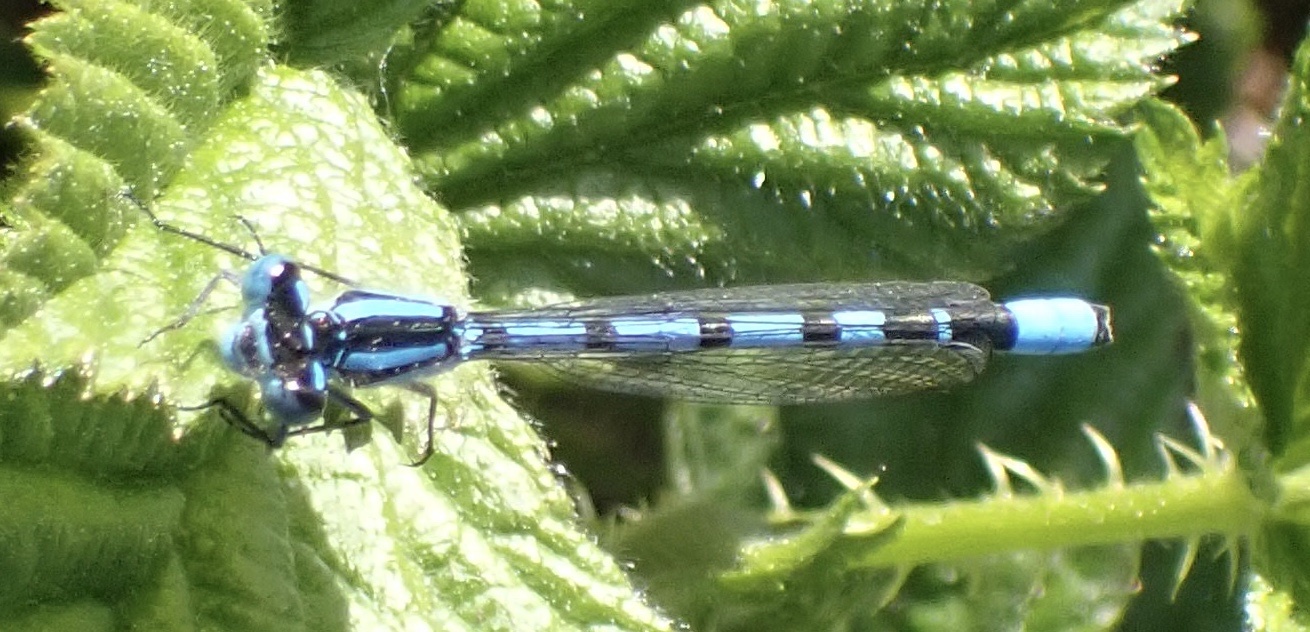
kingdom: Animalia
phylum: Arthropoda
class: Insecta
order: Odonata
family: Coenagrionidae
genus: Enallagma
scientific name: Enallagma cyathigerum
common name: Common blue damselfly
